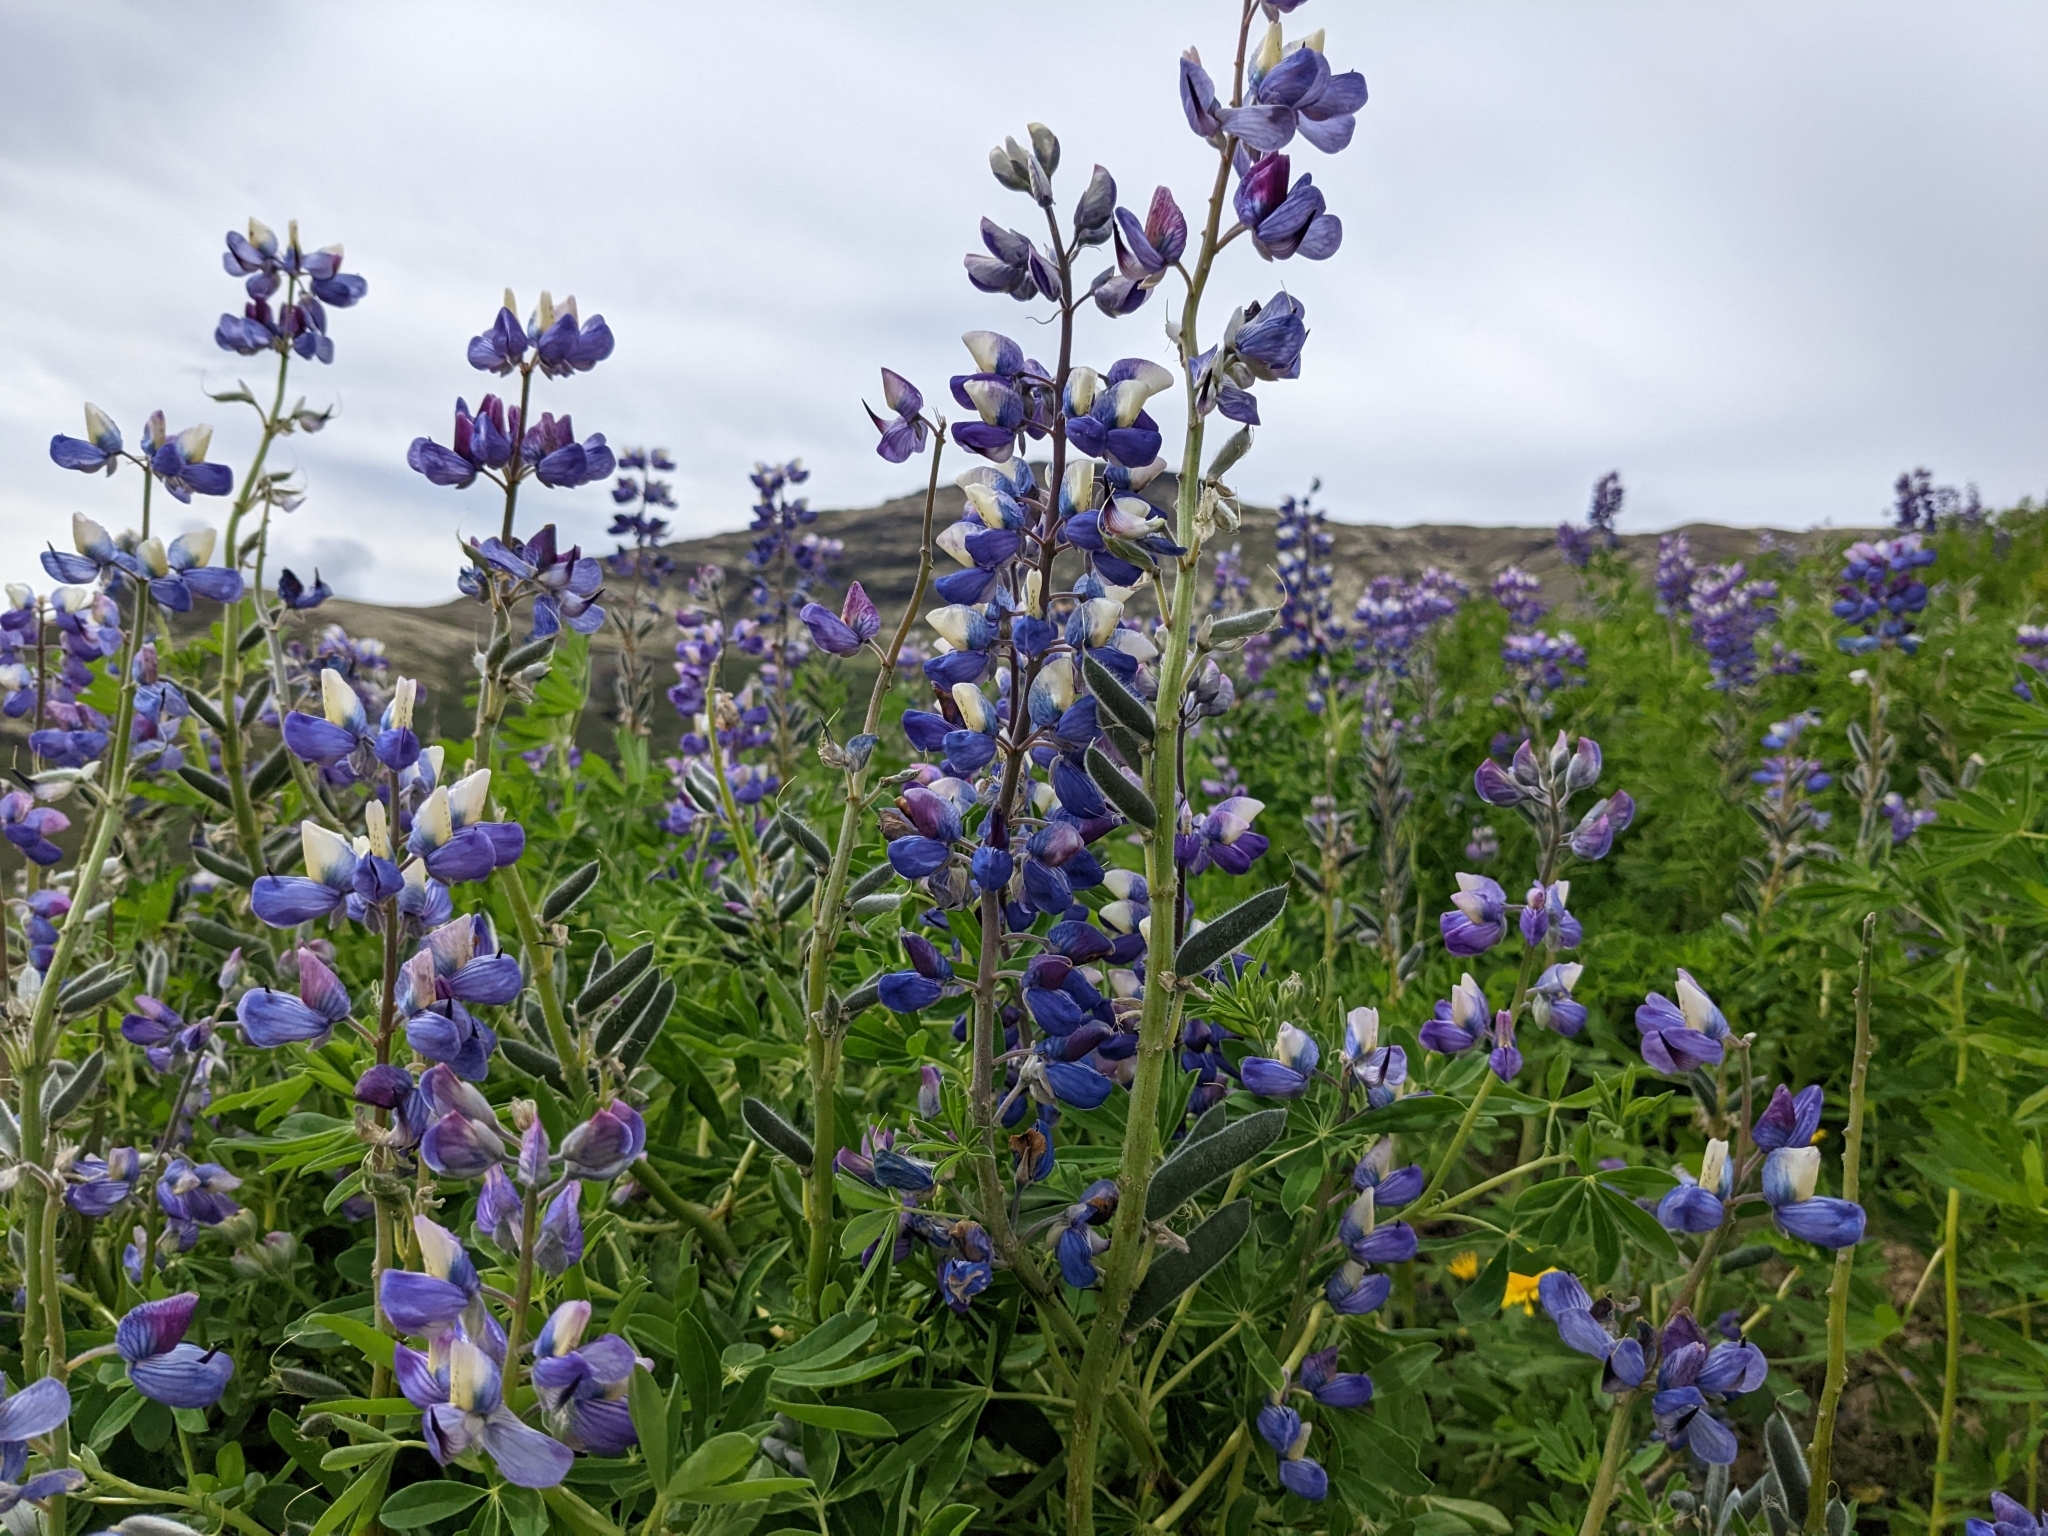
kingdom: Plantae
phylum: Tracheophyta
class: Magnoliopsida
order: Fabales
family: Fabaceae
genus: Lupinus
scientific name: Lupinus nootkatensis
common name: Nootka lupine
